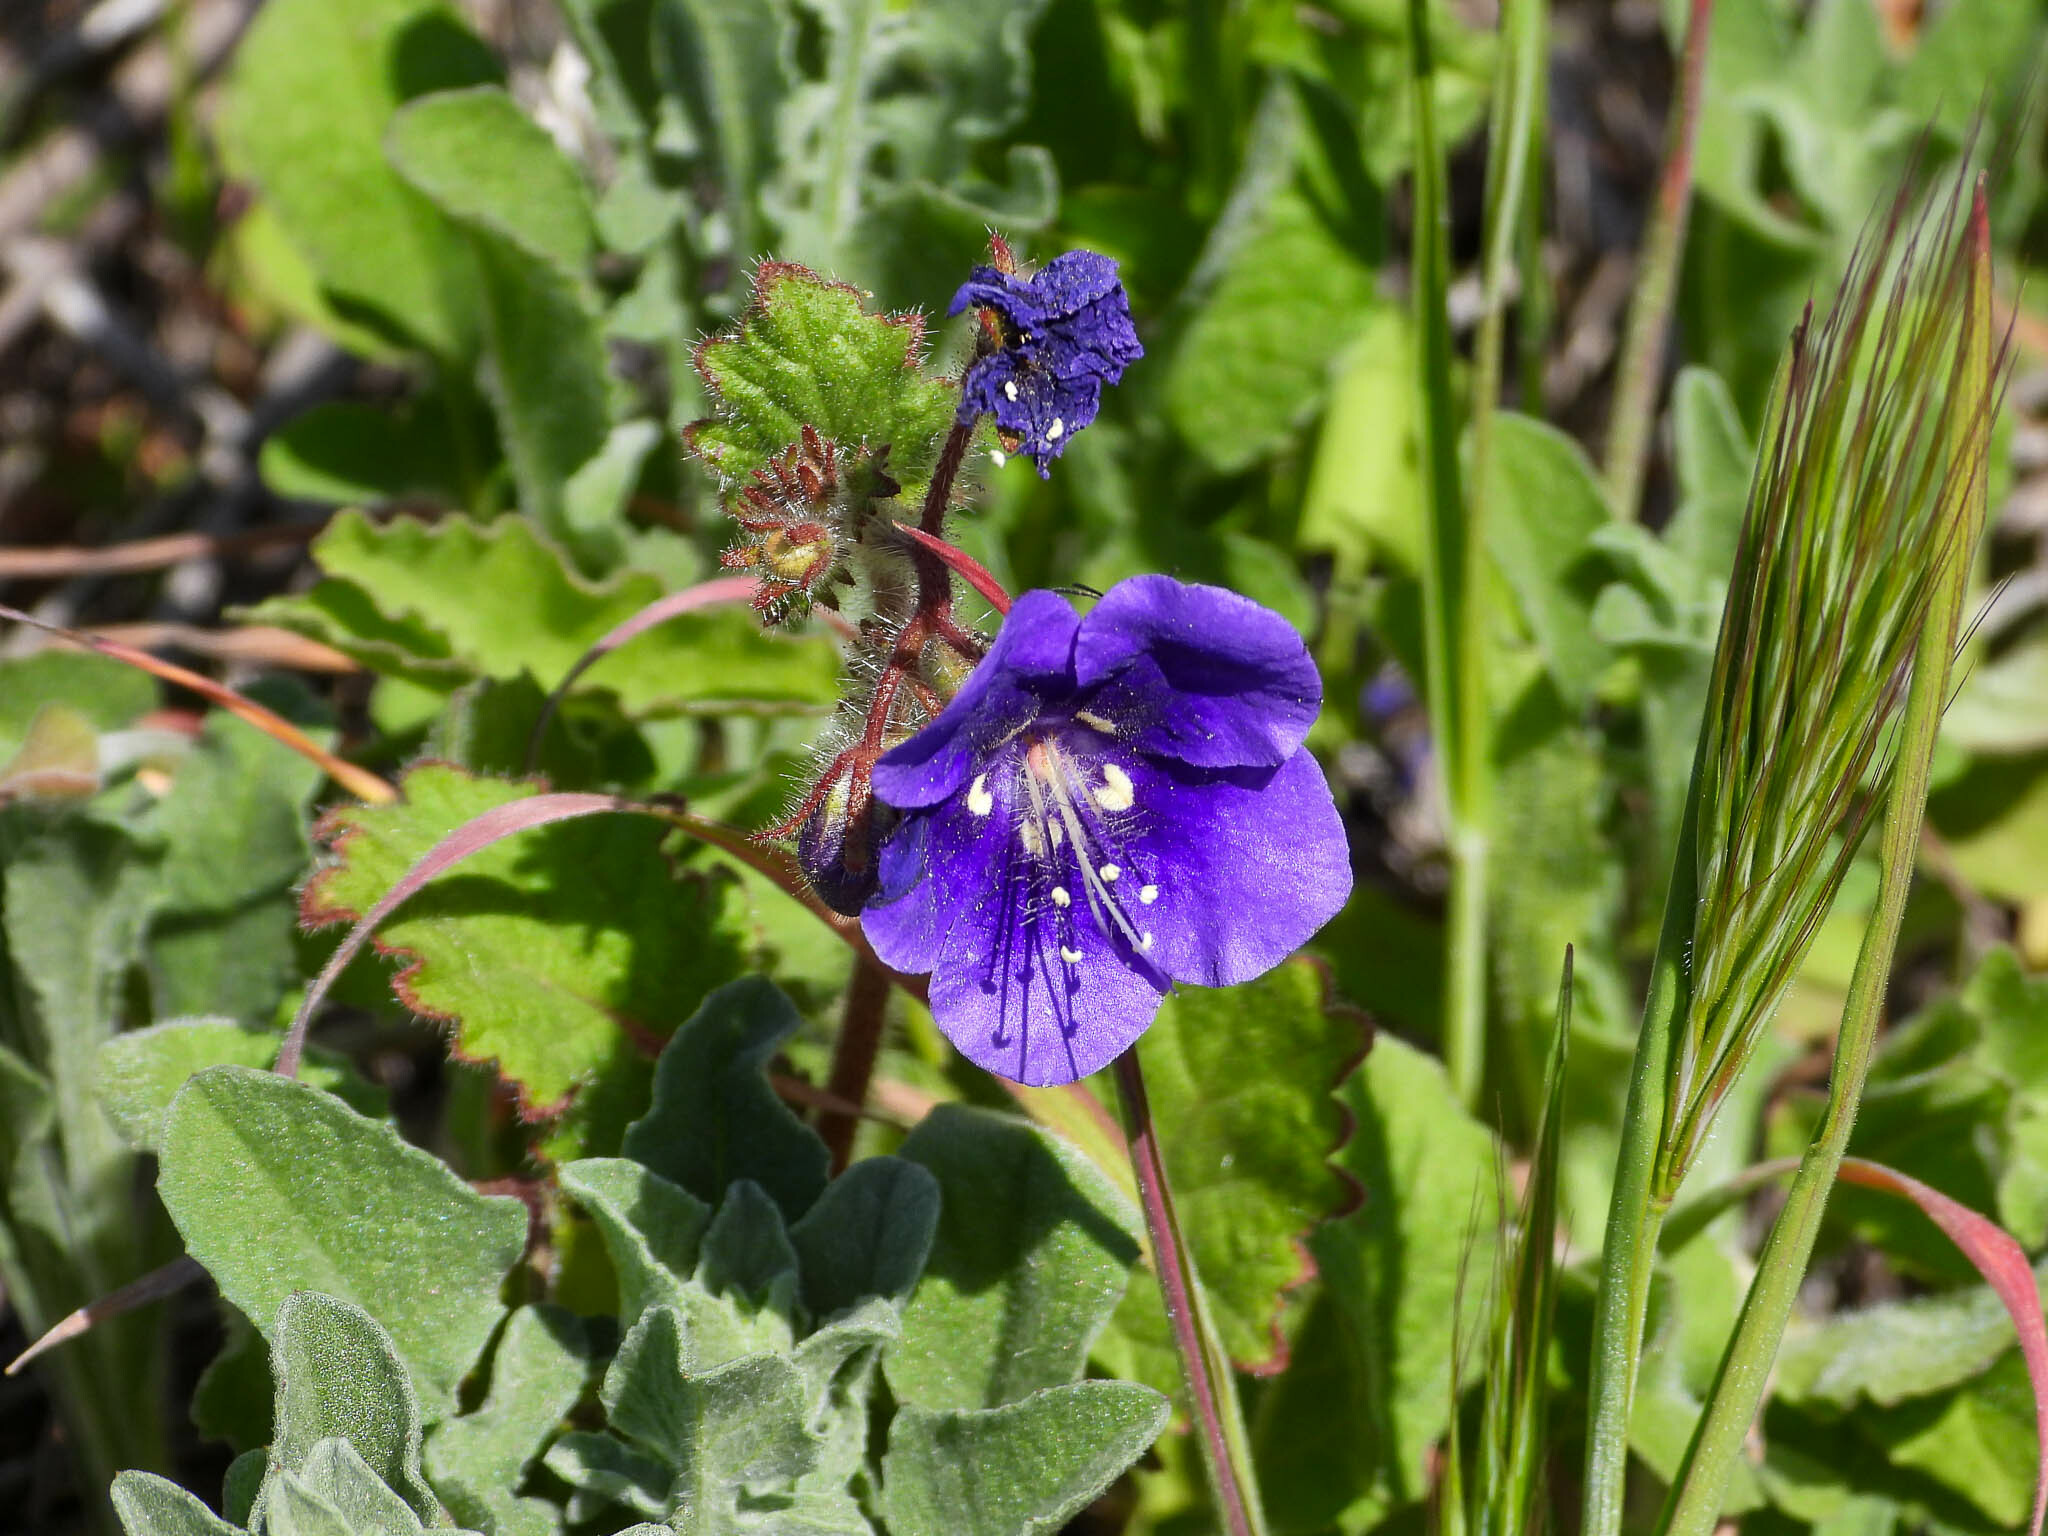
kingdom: Plantae
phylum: Tracheophyta
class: Magnoliopsida
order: Boraginales
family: Hydrophyllaceae
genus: Phacelia
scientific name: Phacelia parryi
